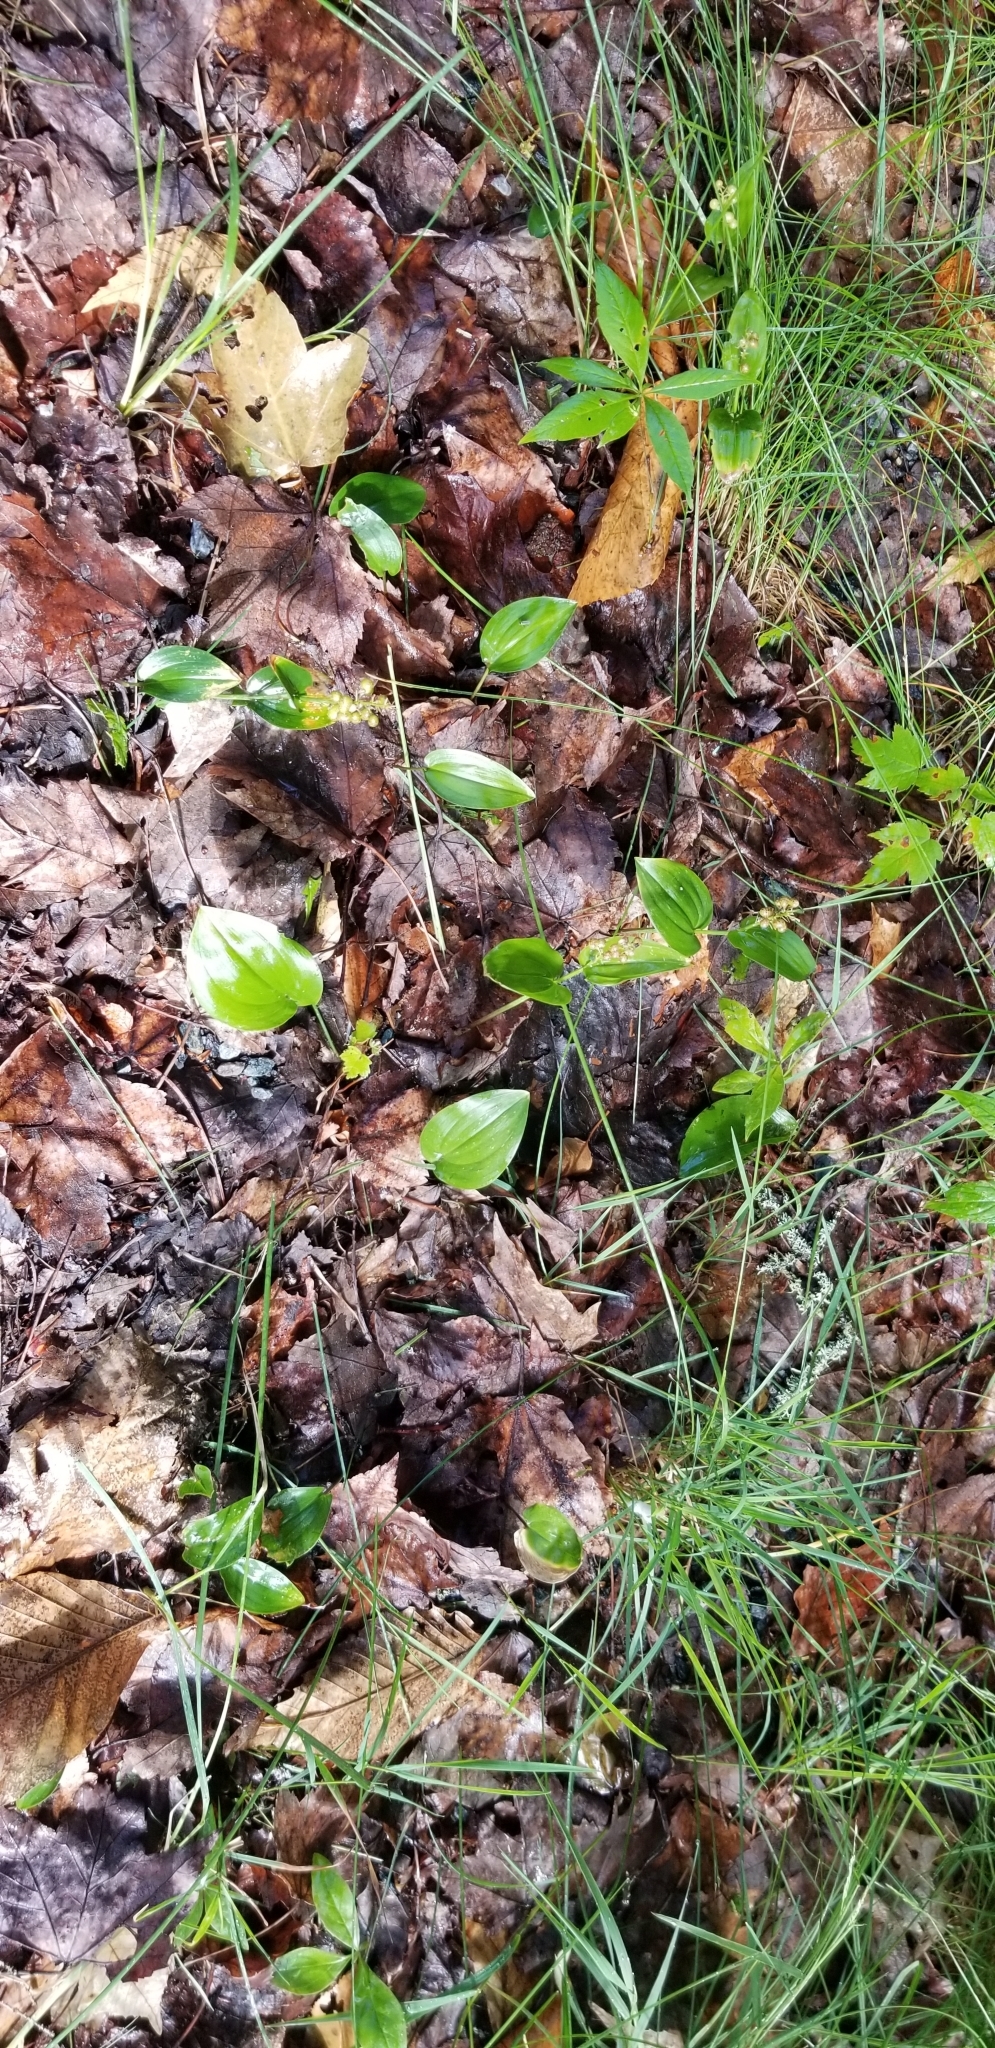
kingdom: Plantae
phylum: Tracheophyta
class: Liliopsida
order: Asparagales
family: Asparagaceae
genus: Maianthemum
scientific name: Maianthemum canadense
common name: False lily-of-the-valley
